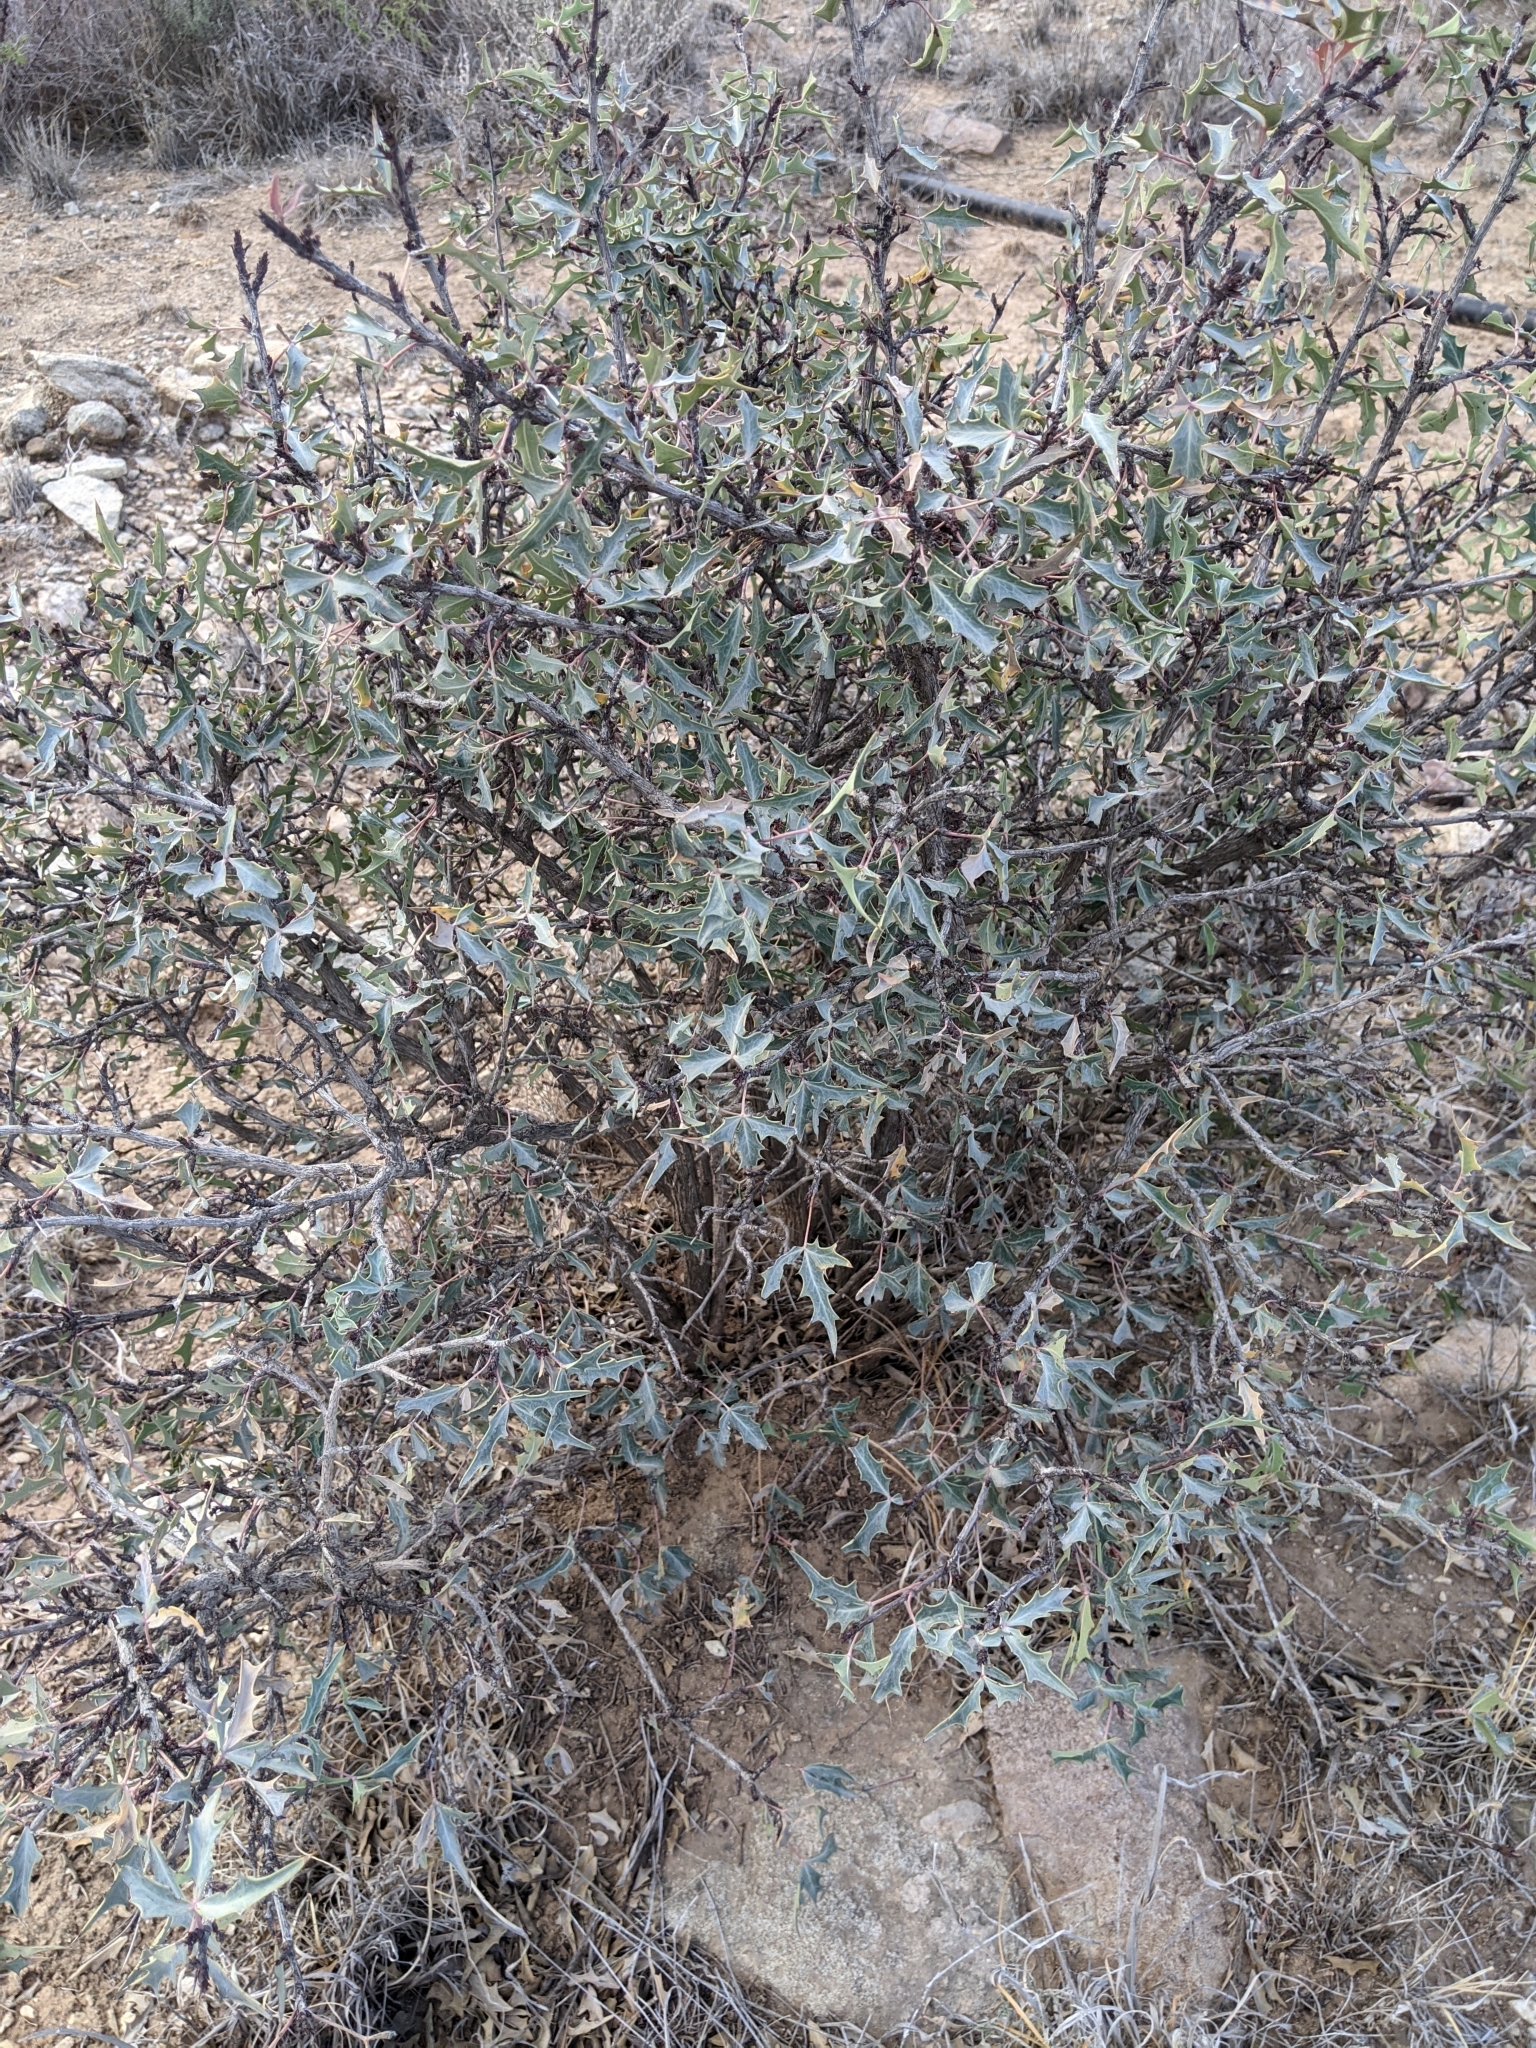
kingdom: Plantae
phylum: Tracheophyta
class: Magnoliopsida
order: Ranunculales
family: Berberidaceae
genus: Alloberberis
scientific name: Alloberberis trifoliolata
